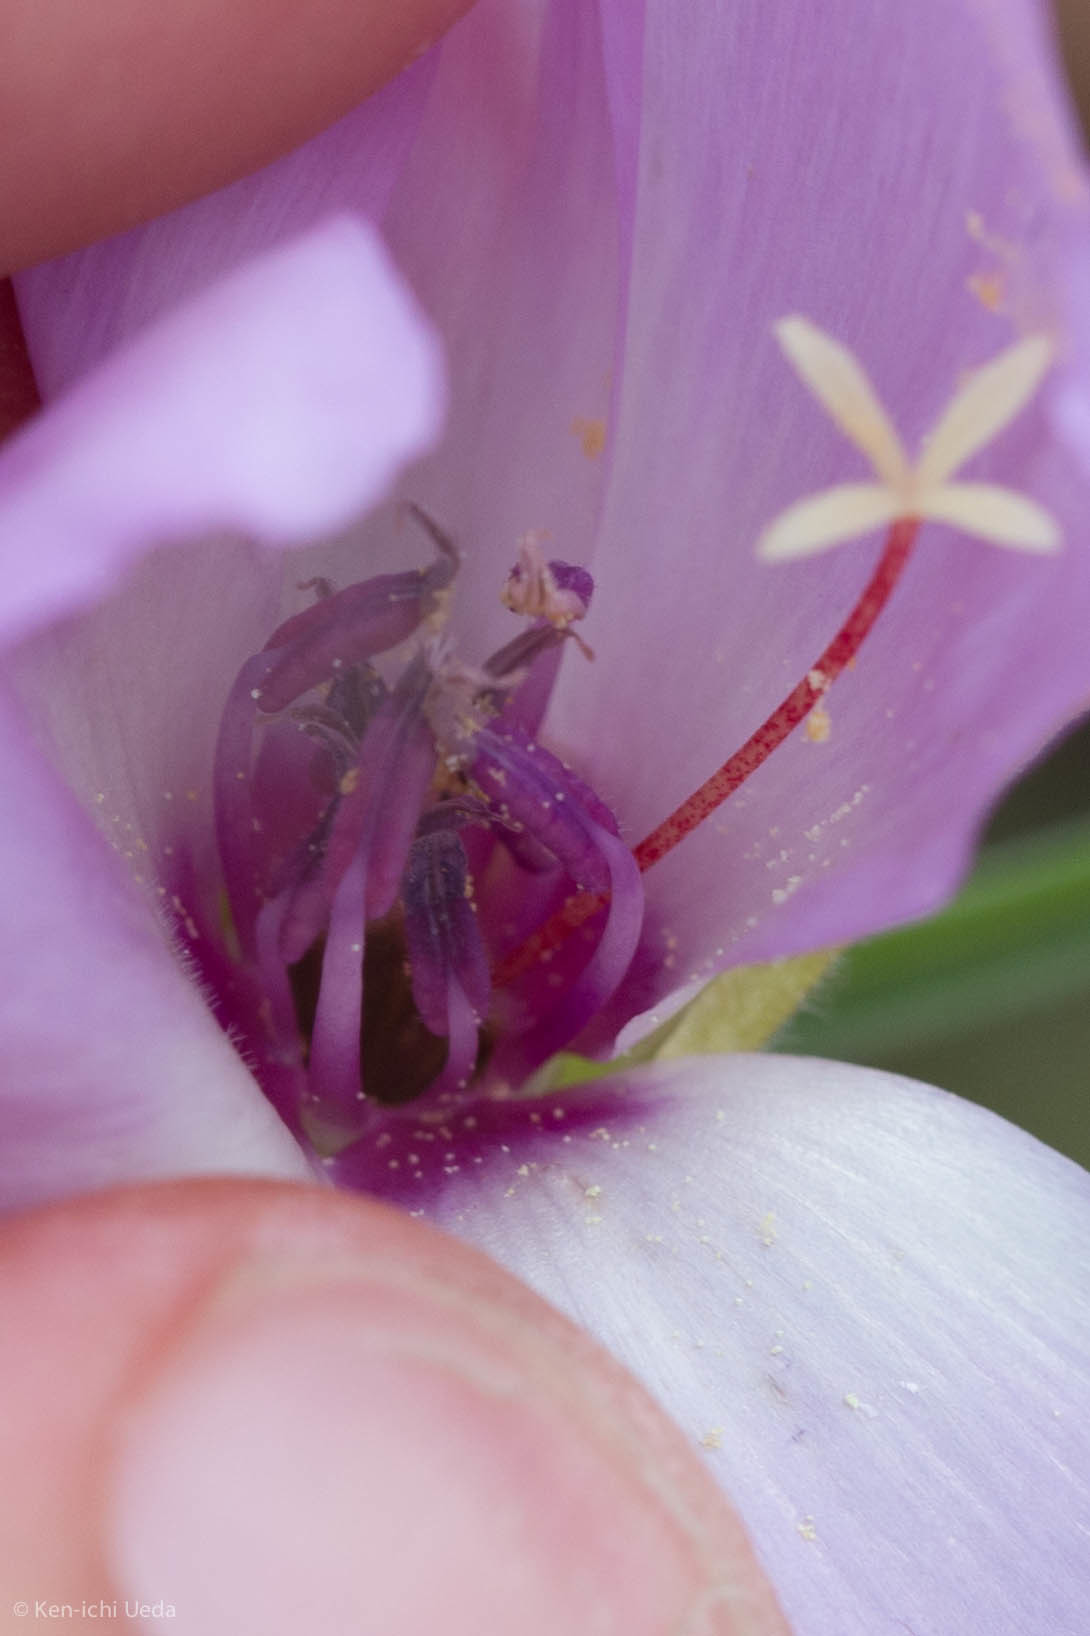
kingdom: Plantae
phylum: Tracheophyta
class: Magnoliopsida
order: Myrtales
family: Onagraceae
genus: Clarkia
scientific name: Clarkia arcuata
